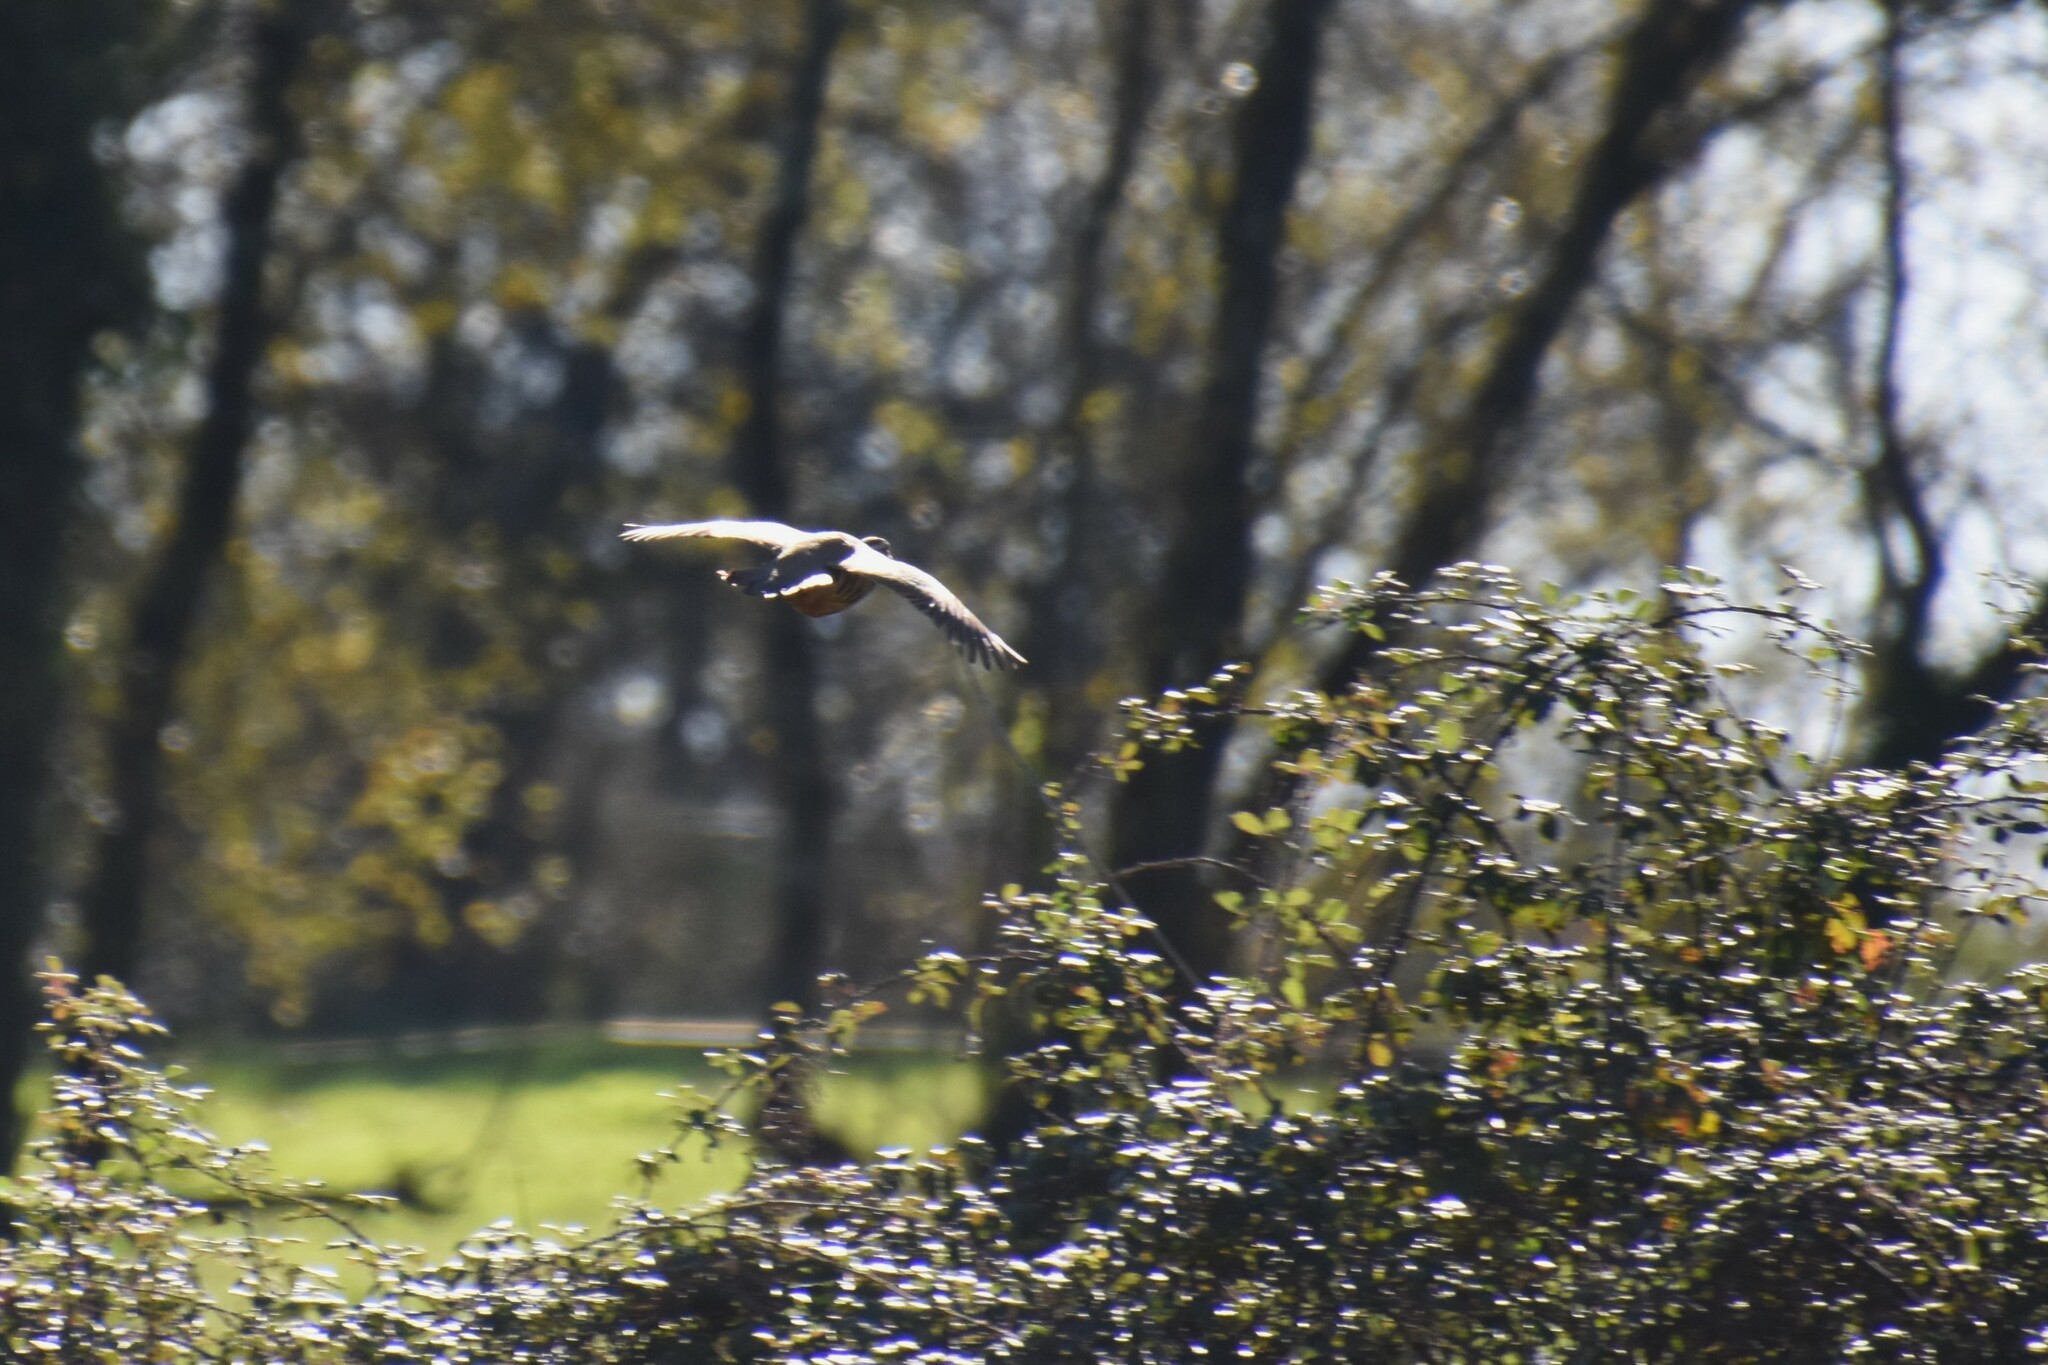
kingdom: Animalia
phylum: Chordata
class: Aves
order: Galliformes
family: Phasianidae
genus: Alectoris
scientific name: Alectoris rufa
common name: Red-legged partridge
